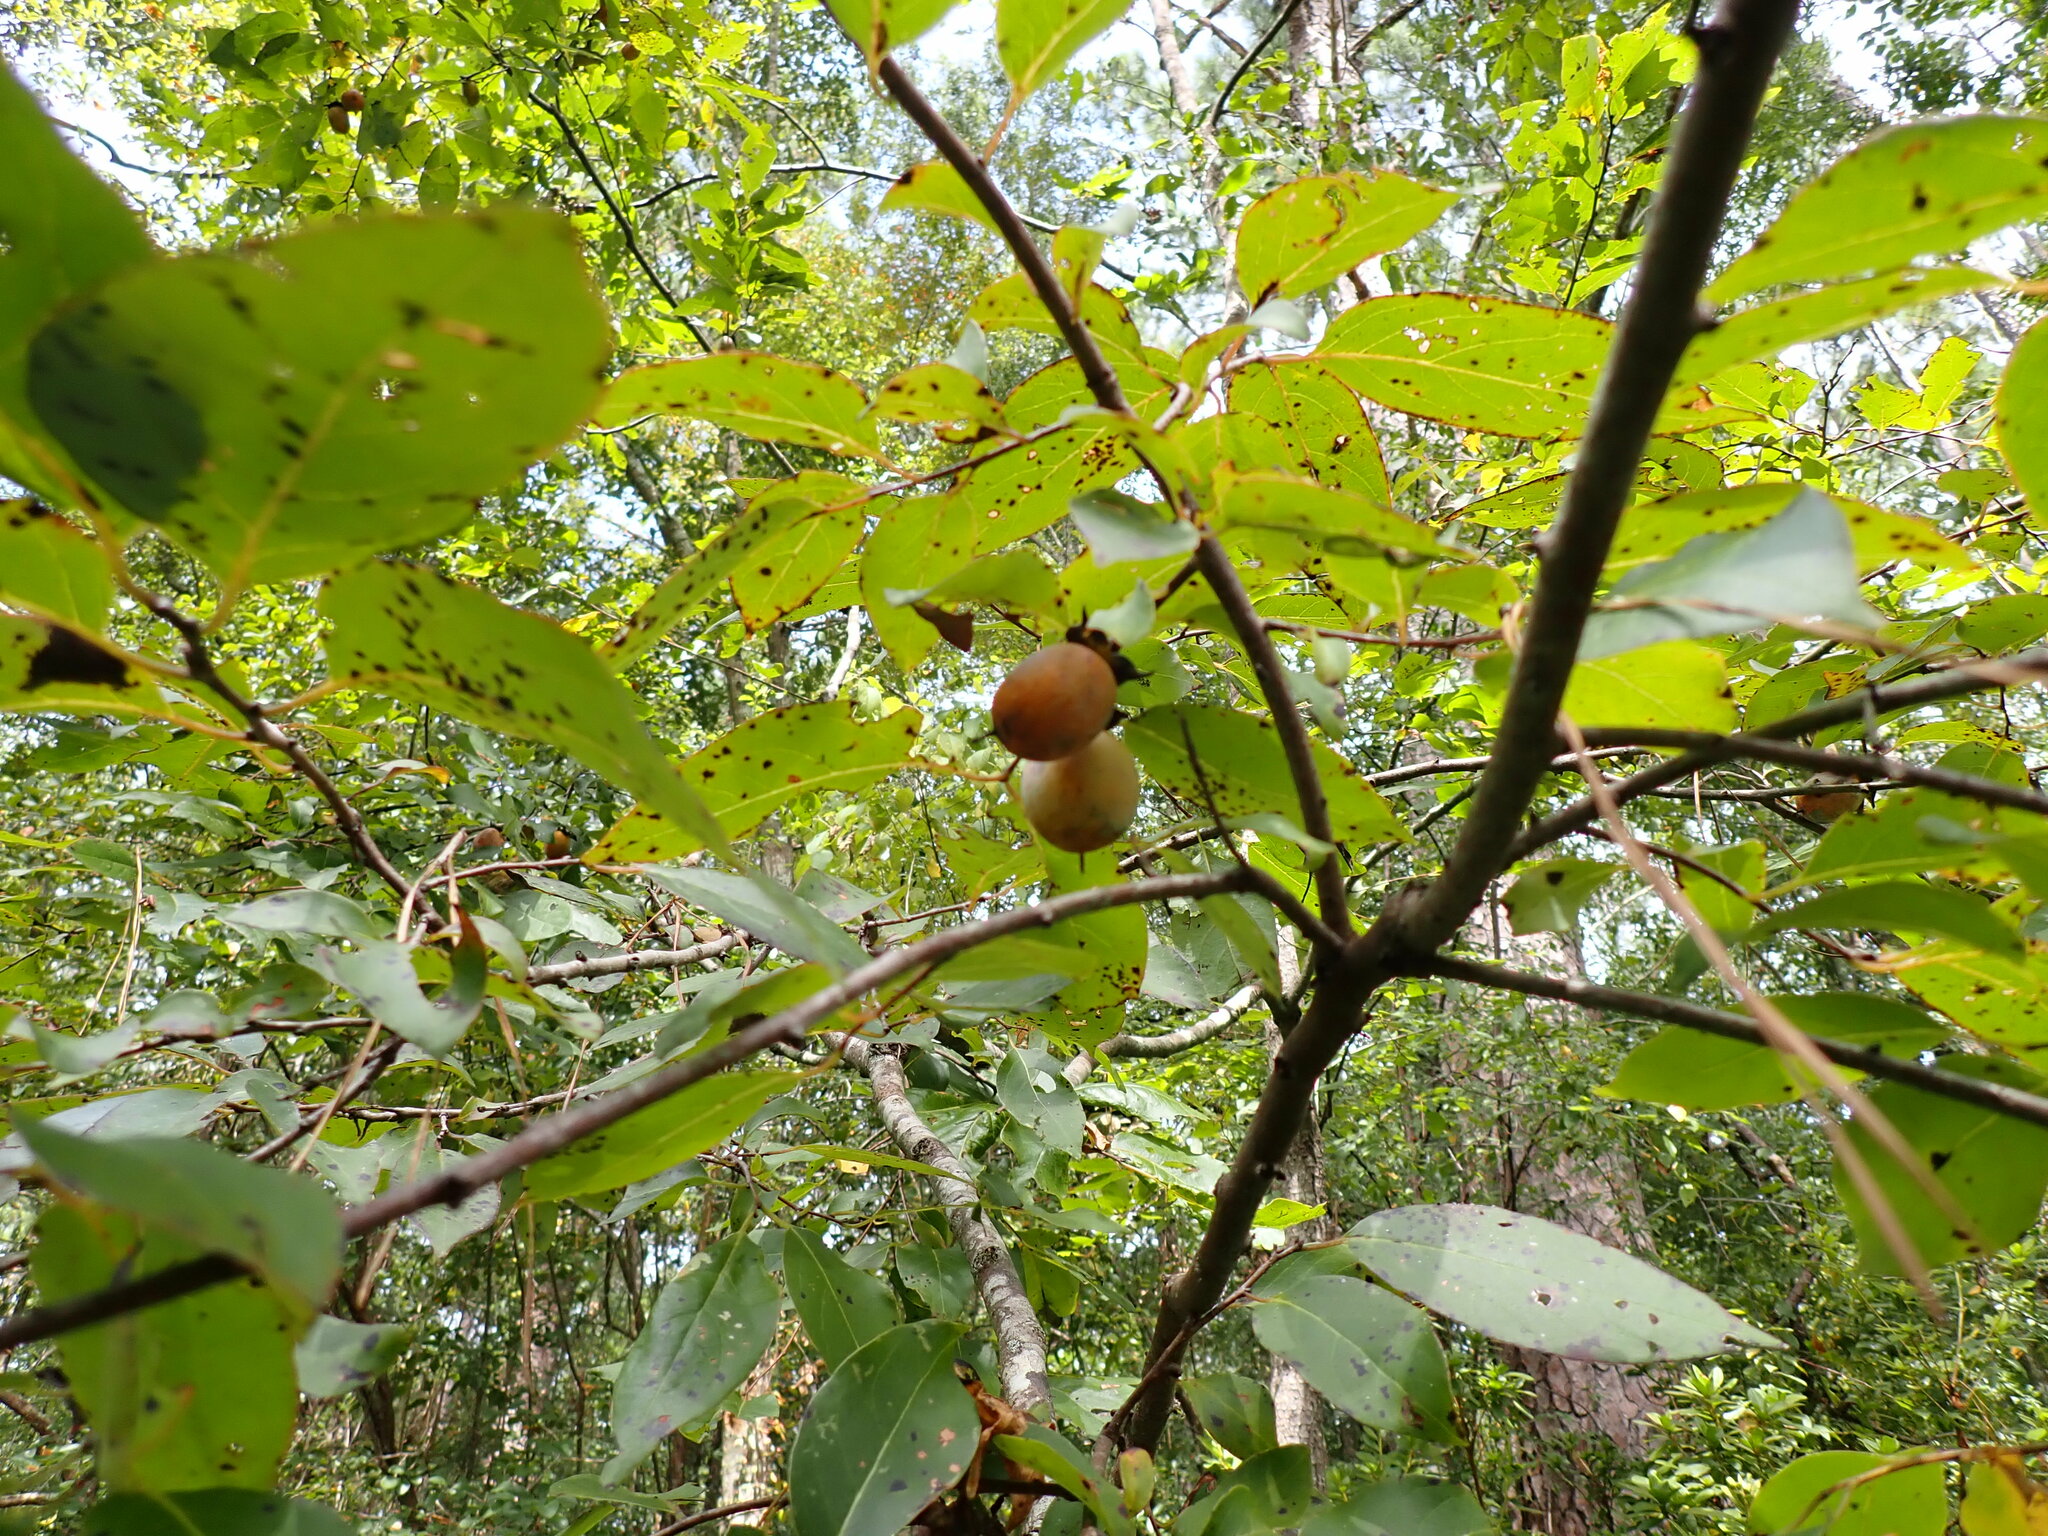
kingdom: Plantae
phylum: Tracheophyta
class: Magnoliopsida
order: Ericales
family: Ebenaceae
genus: Diospyros
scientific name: Diospyros virginiana
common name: Persimmon
